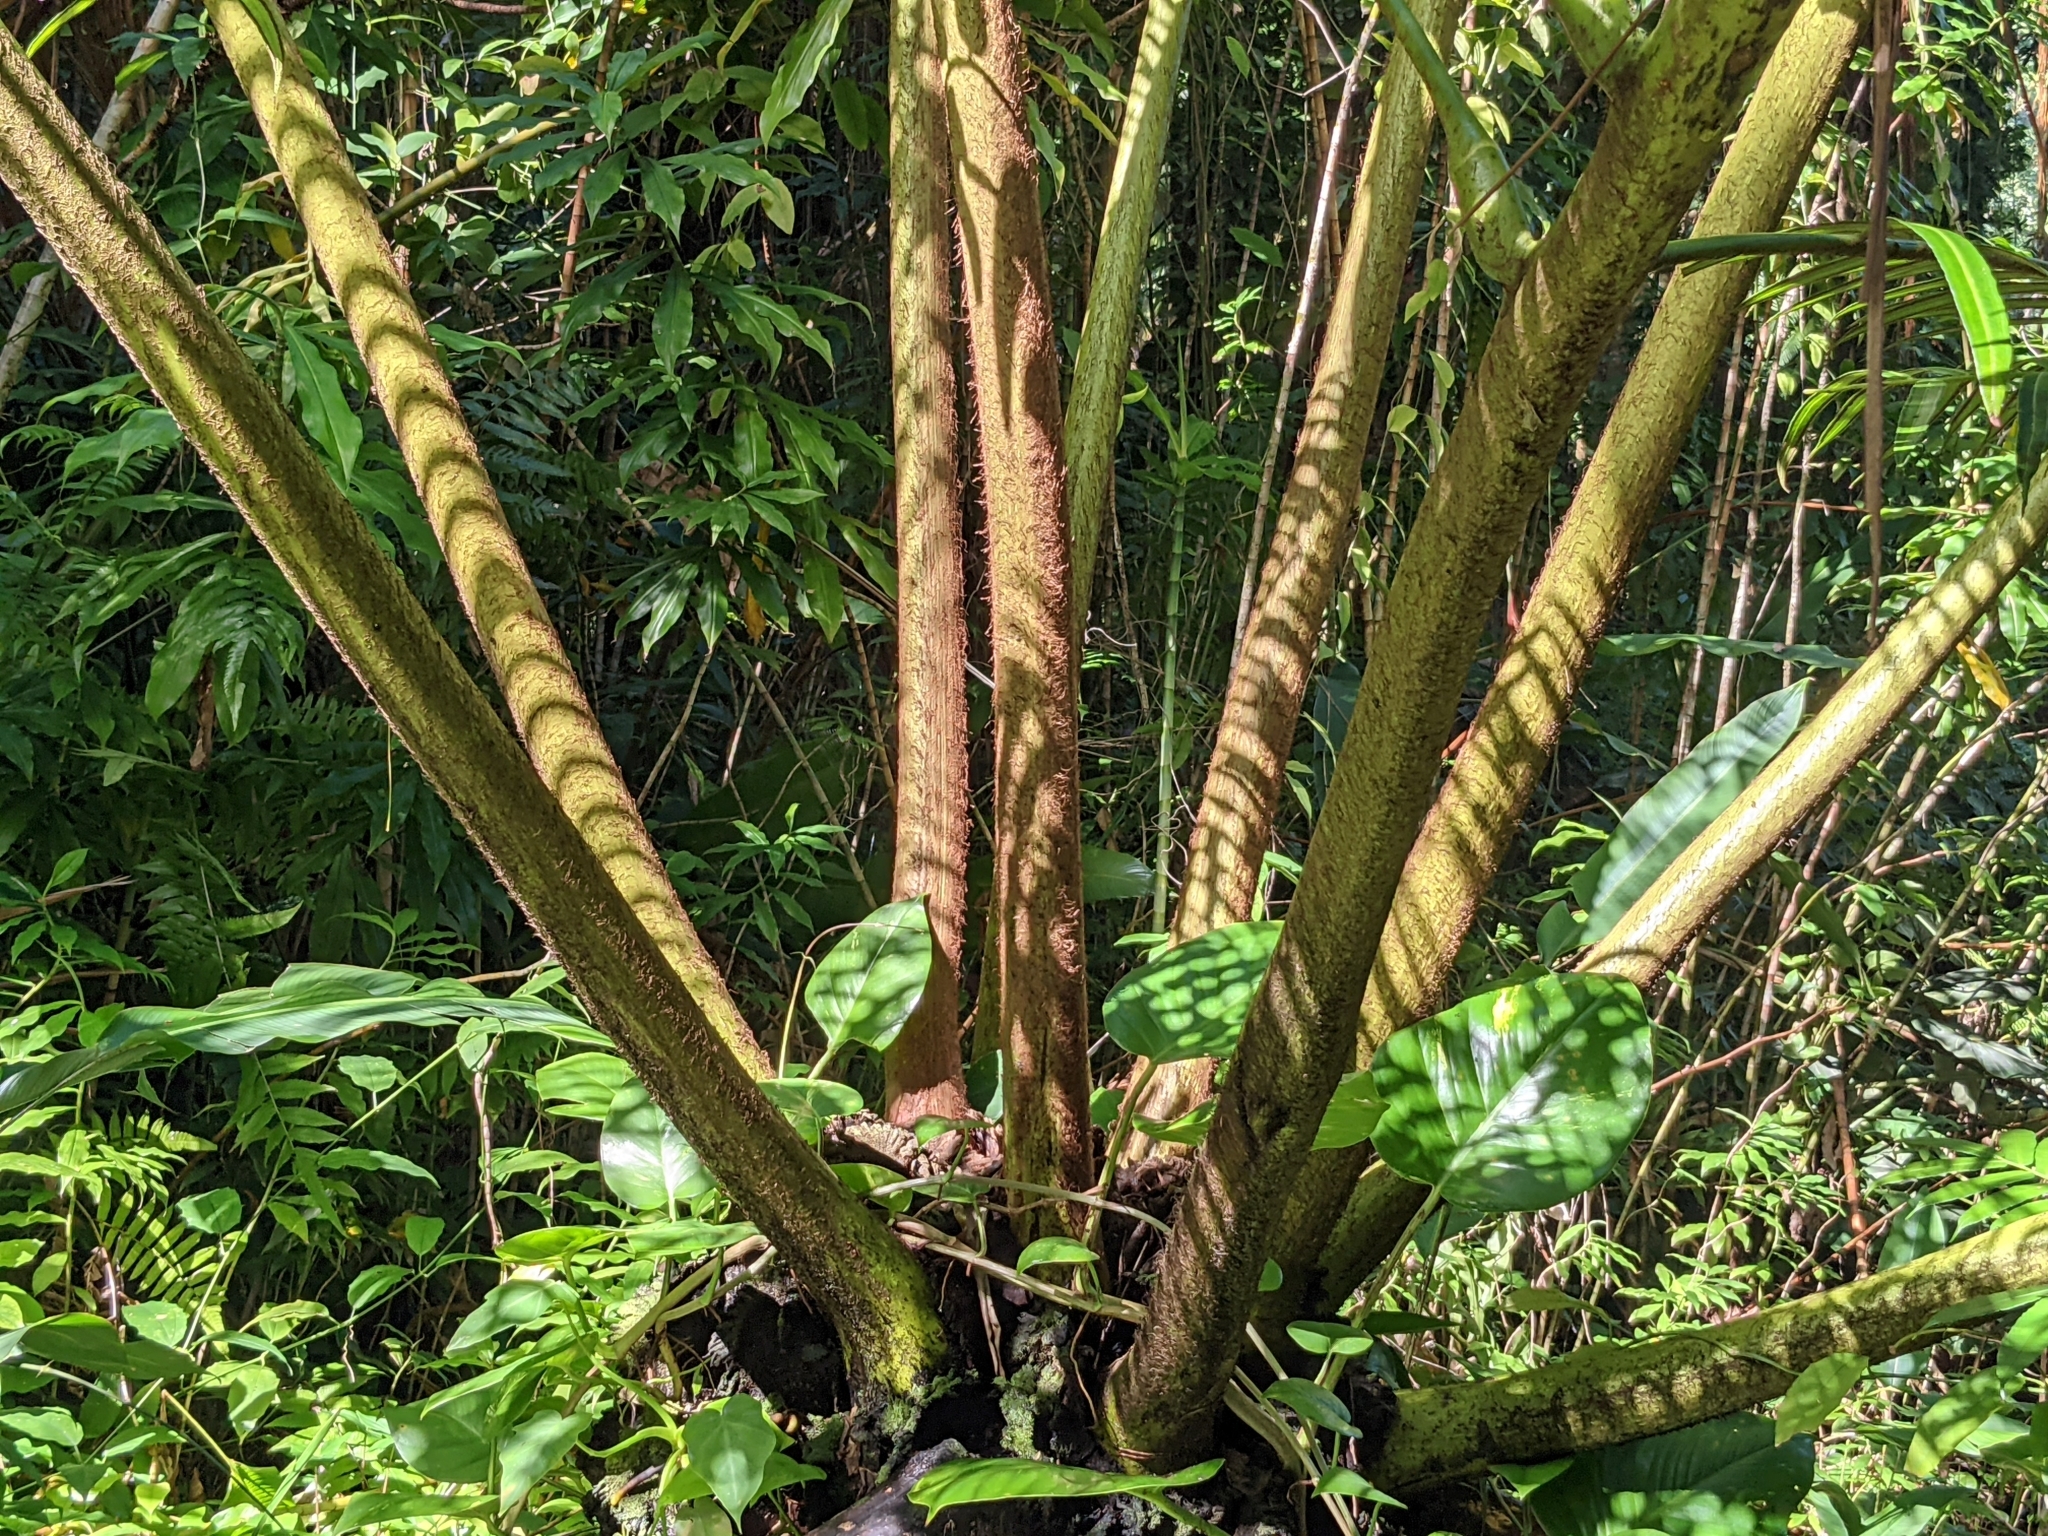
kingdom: Plantae
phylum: Tracheophyta
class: Polypodiopsida
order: Marattiales
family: Marattiaceae
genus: Angiopteris
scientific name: Angiopteris evecta
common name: Mule's-foot fern
